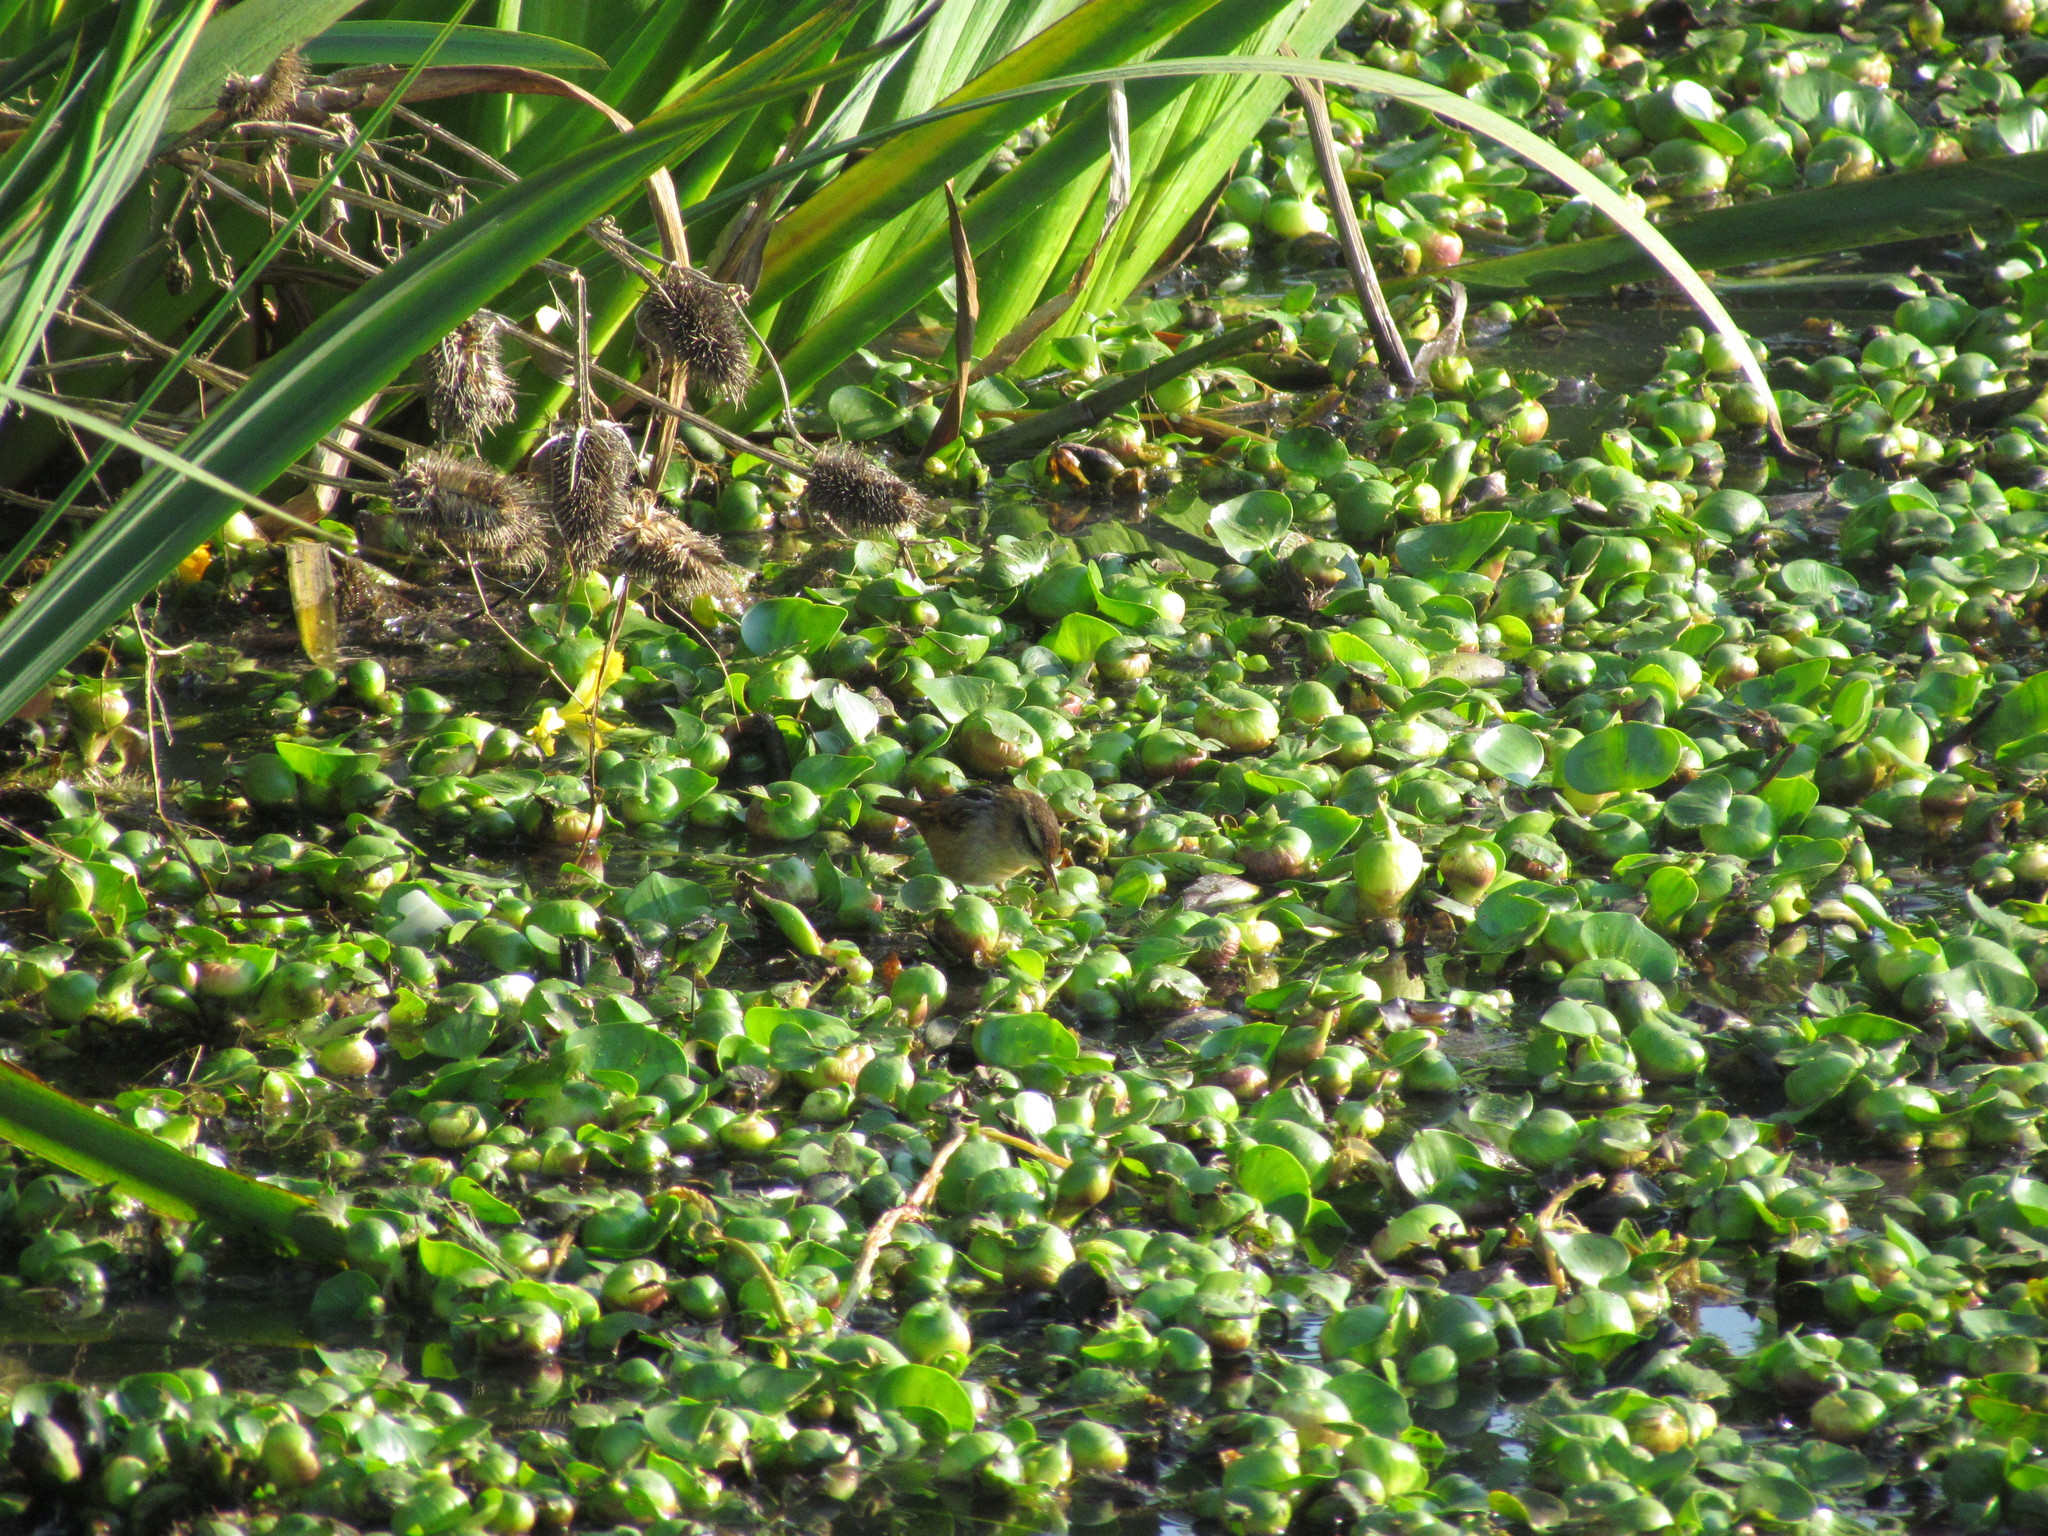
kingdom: Animalia
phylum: Chordata
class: Aves
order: Passeriformes
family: Furnariidae
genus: Phleocryptes
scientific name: Phleocryptes melanops
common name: Wren-like rushbird
